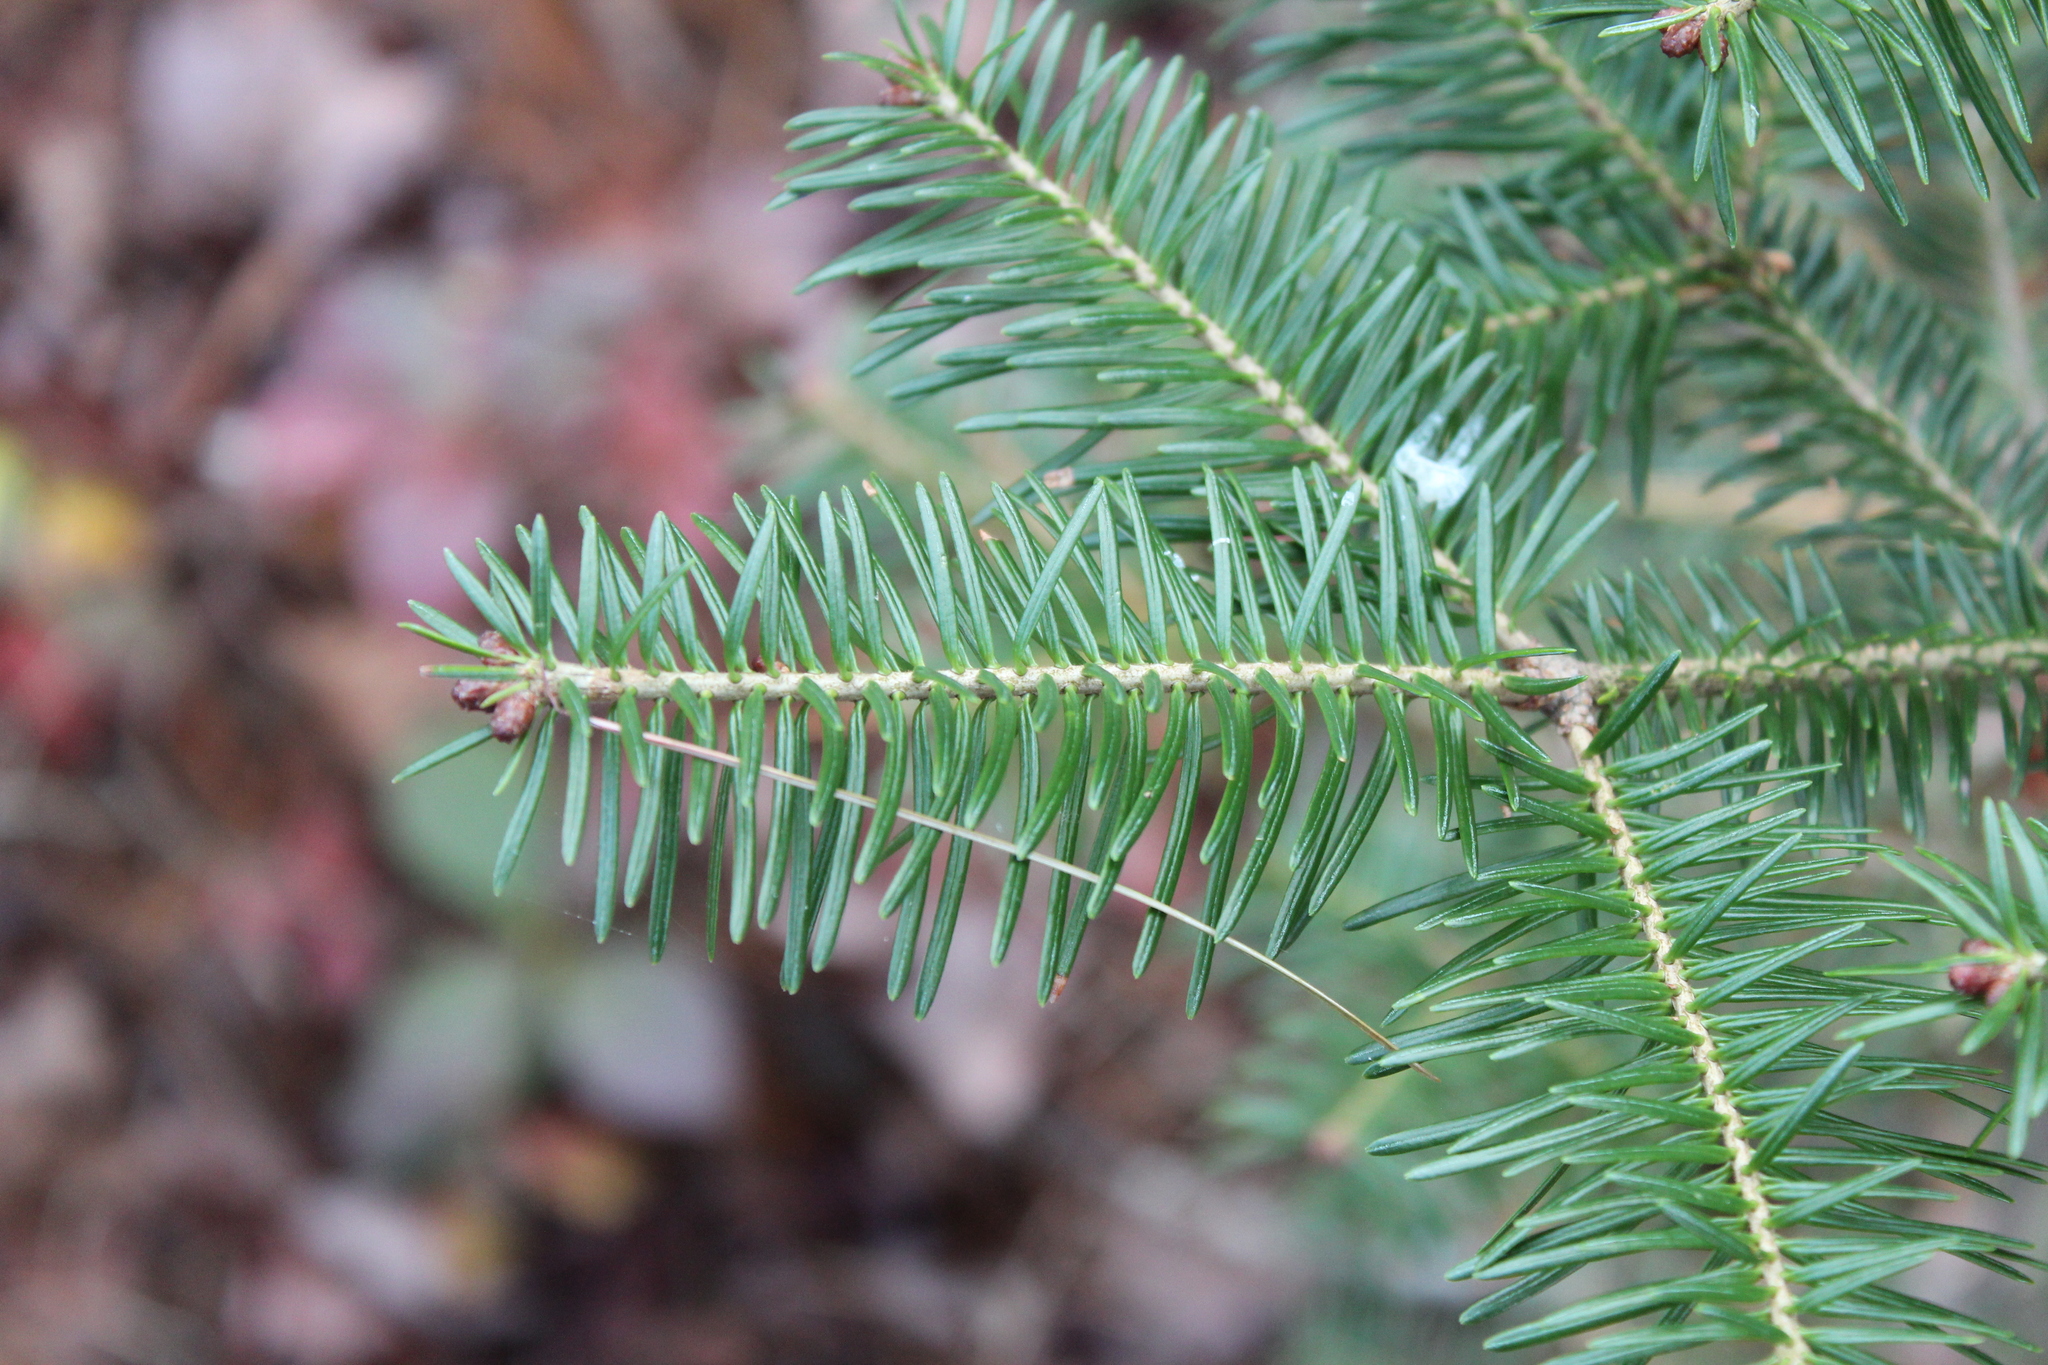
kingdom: Plantae
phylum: Tracheophyta
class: Pinopsida
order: Pinales
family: Pinaceae
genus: Abies
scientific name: Abies balsamea
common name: Balsam fir
